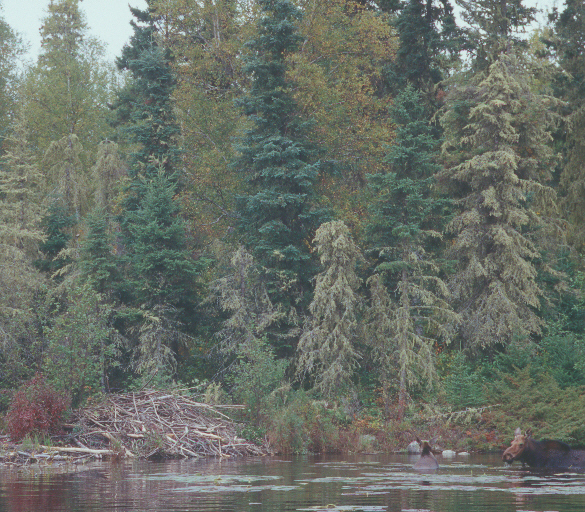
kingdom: Animalia
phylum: Chordata
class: Mammalia
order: Artiodactyla
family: Cervidae
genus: Alces
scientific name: Alces alces
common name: Moose
